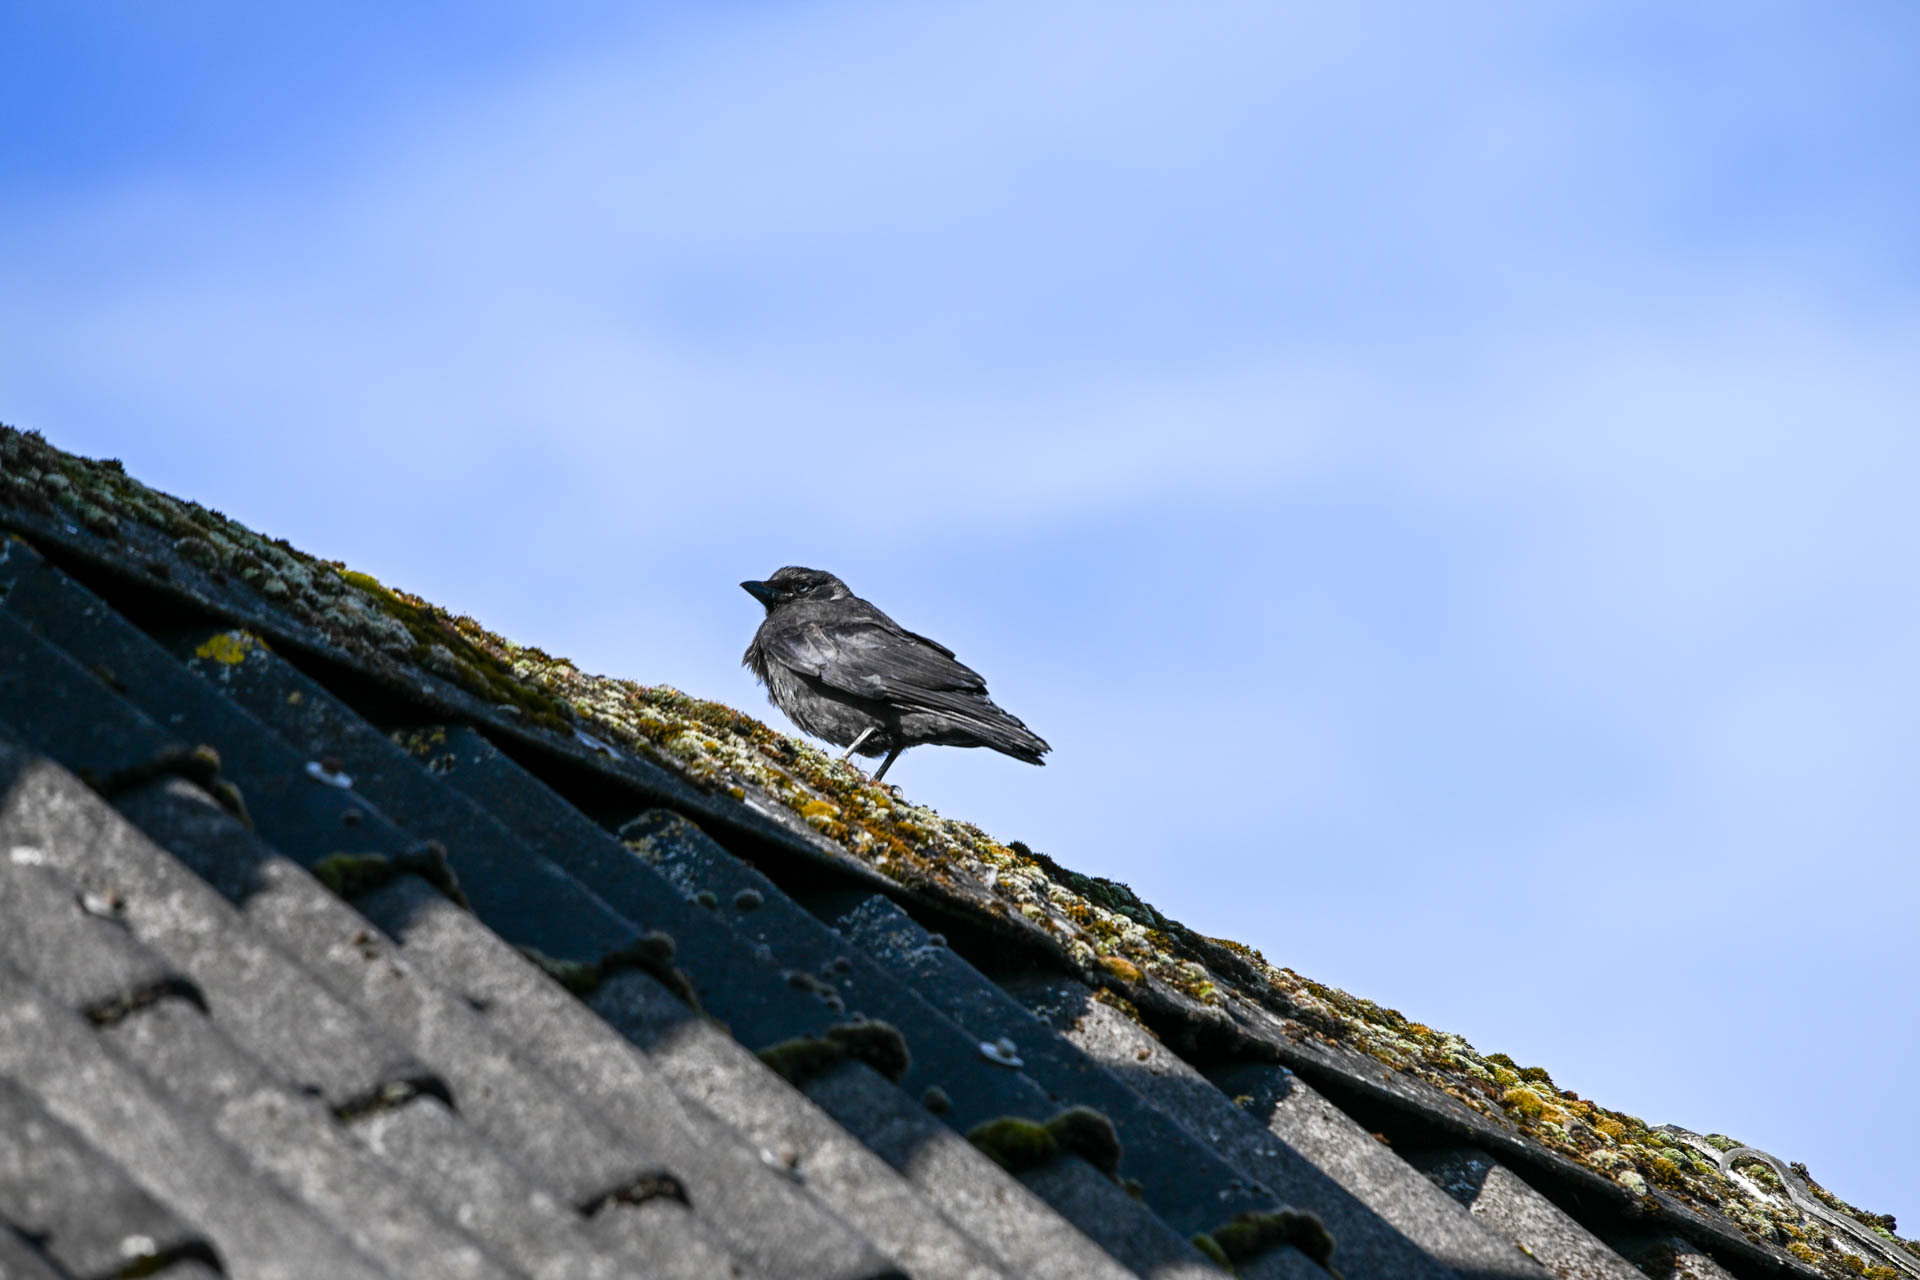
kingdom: Animalia
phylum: Chordata
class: Aves
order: Passeriformes
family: Corvidae
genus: Coloeus
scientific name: Coloeus monedula
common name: Western jackdaw
